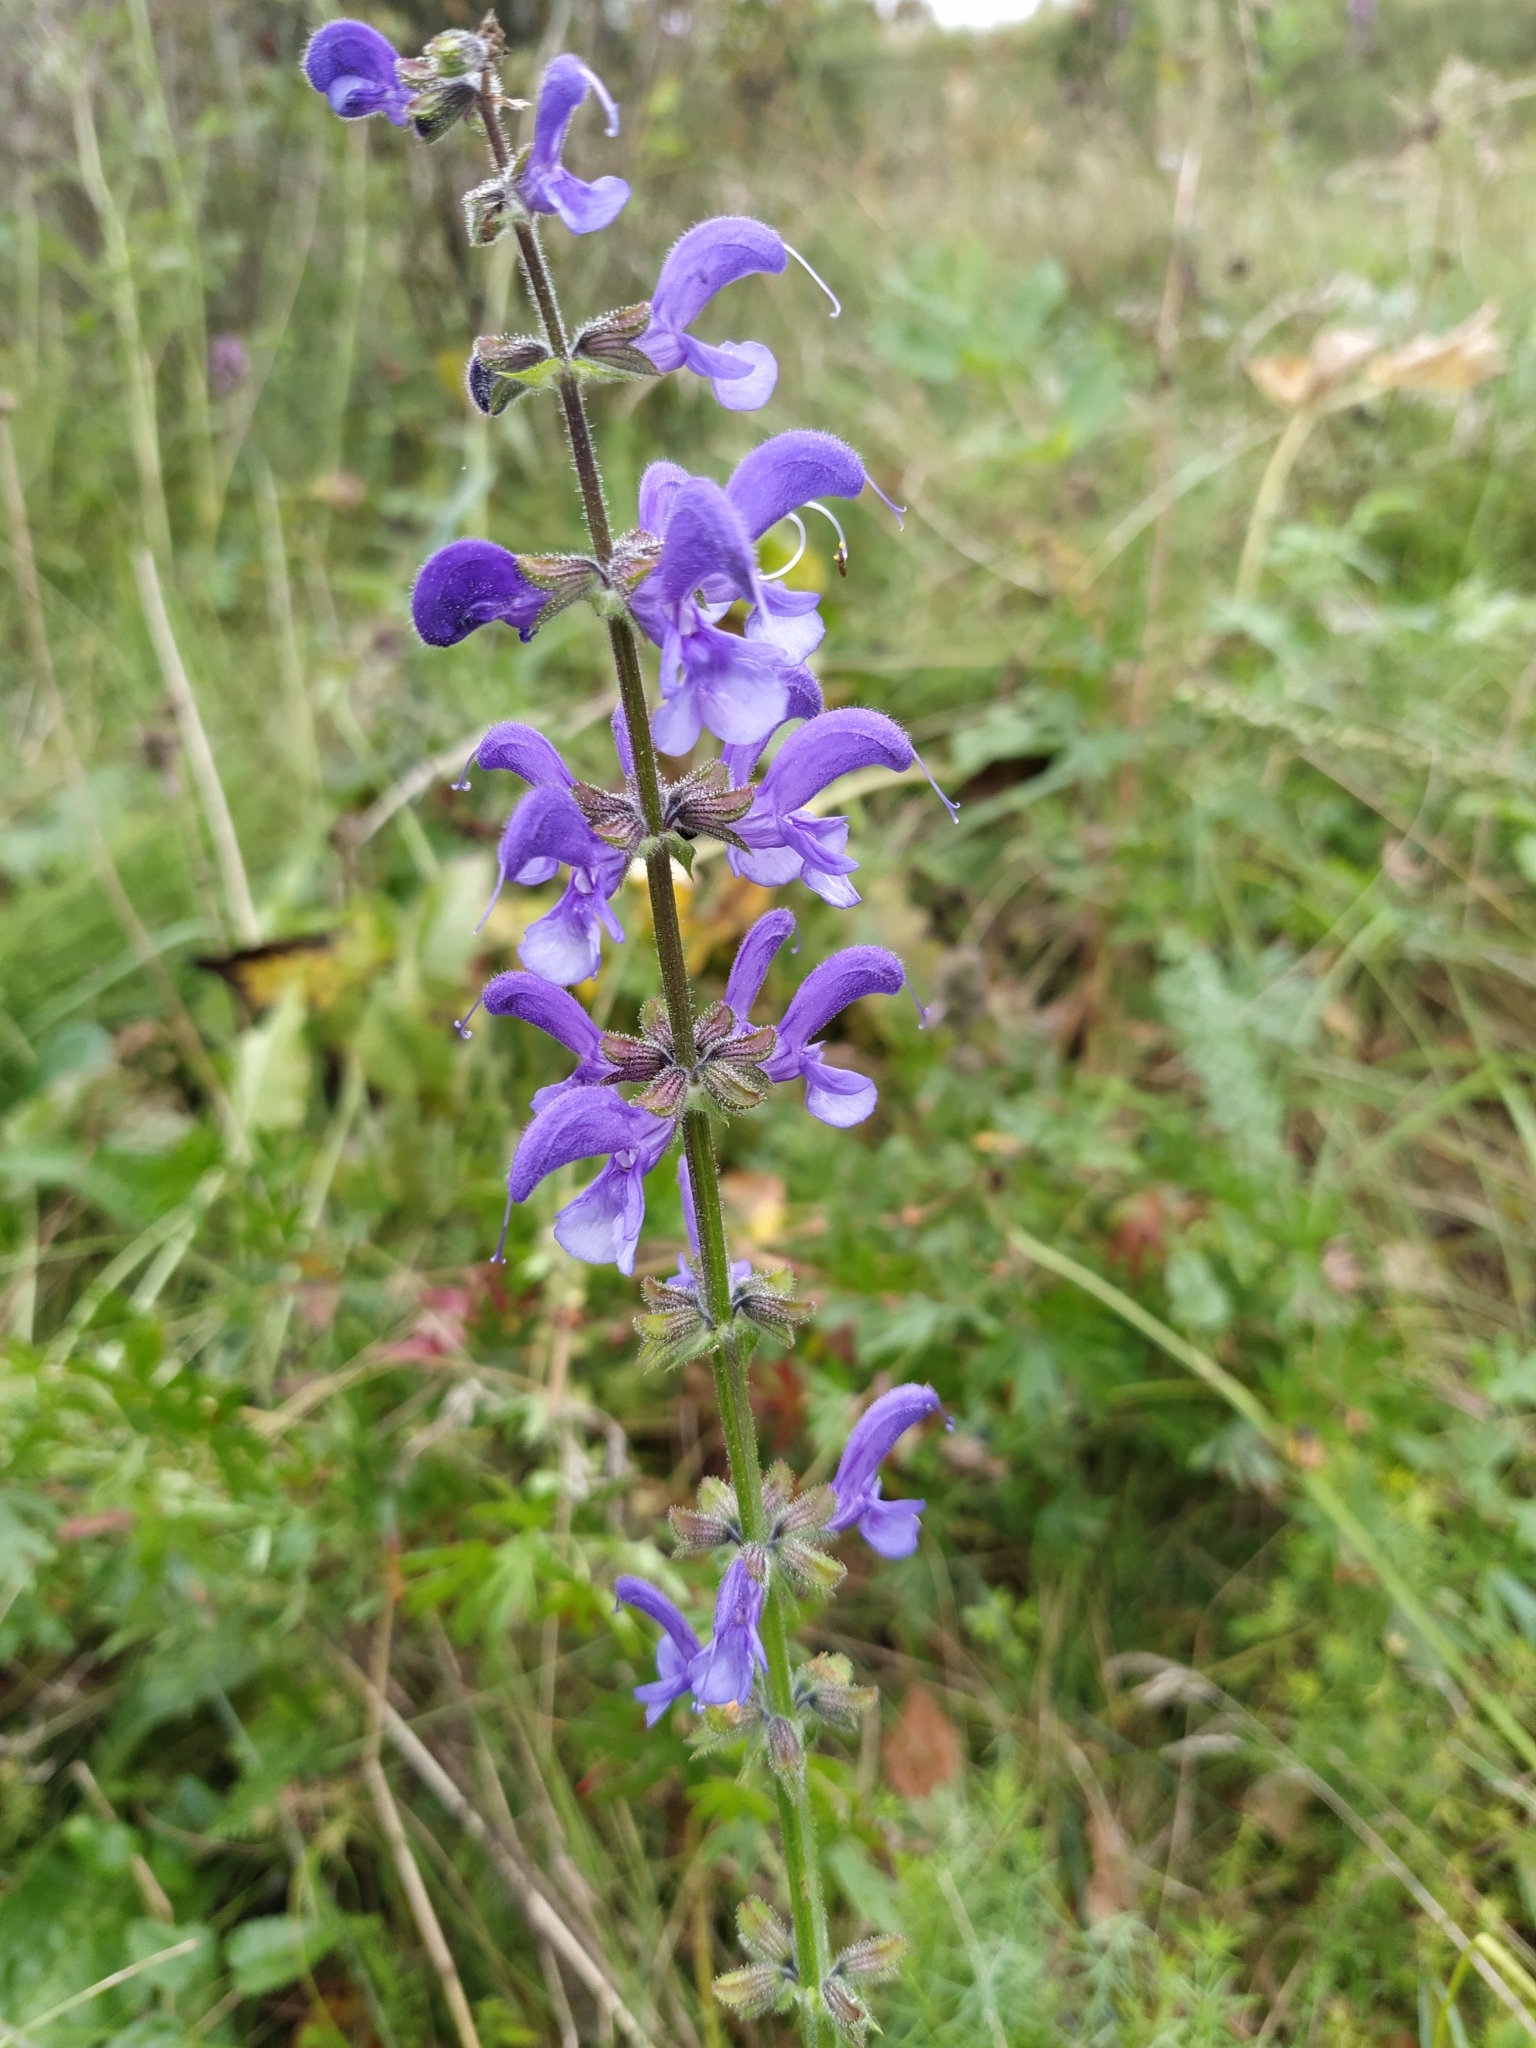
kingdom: Plantae
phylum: Tracheophyta
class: Magnoliopsida
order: Lamiales
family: Lamiaceae
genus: Salvia
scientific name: Salvia pratensis
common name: Meadow sage
